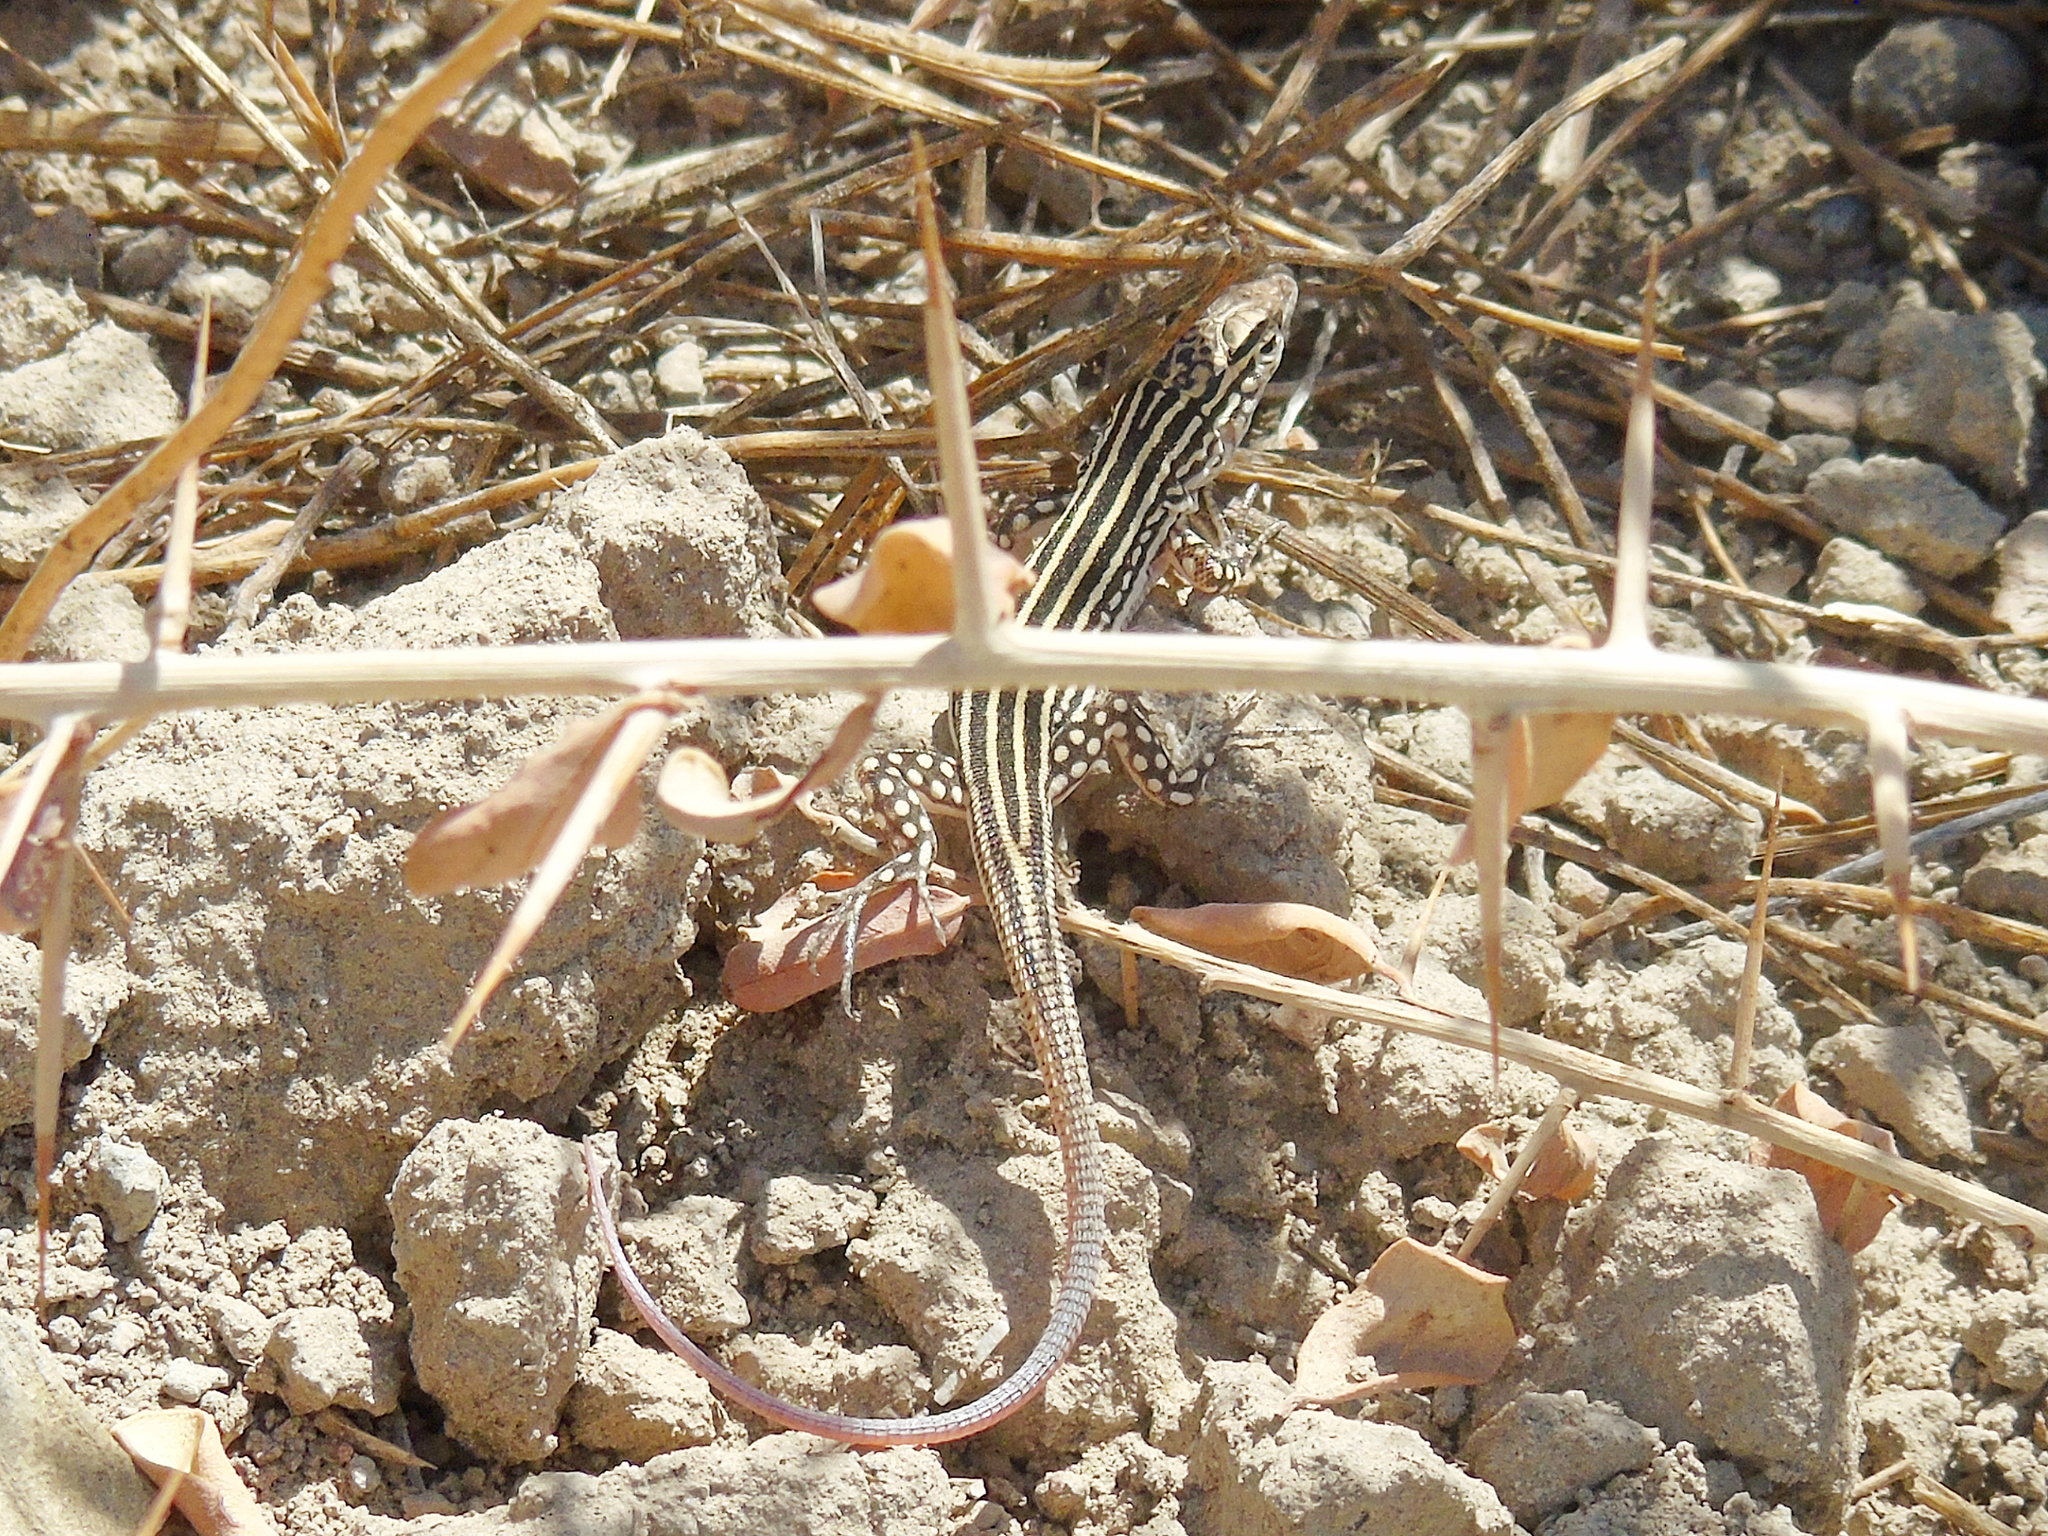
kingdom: Animalia
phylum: Chordata
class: Squamata
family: Lacertidae
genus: Eremias
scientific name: Eremias velox
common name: Central asian racerunner
